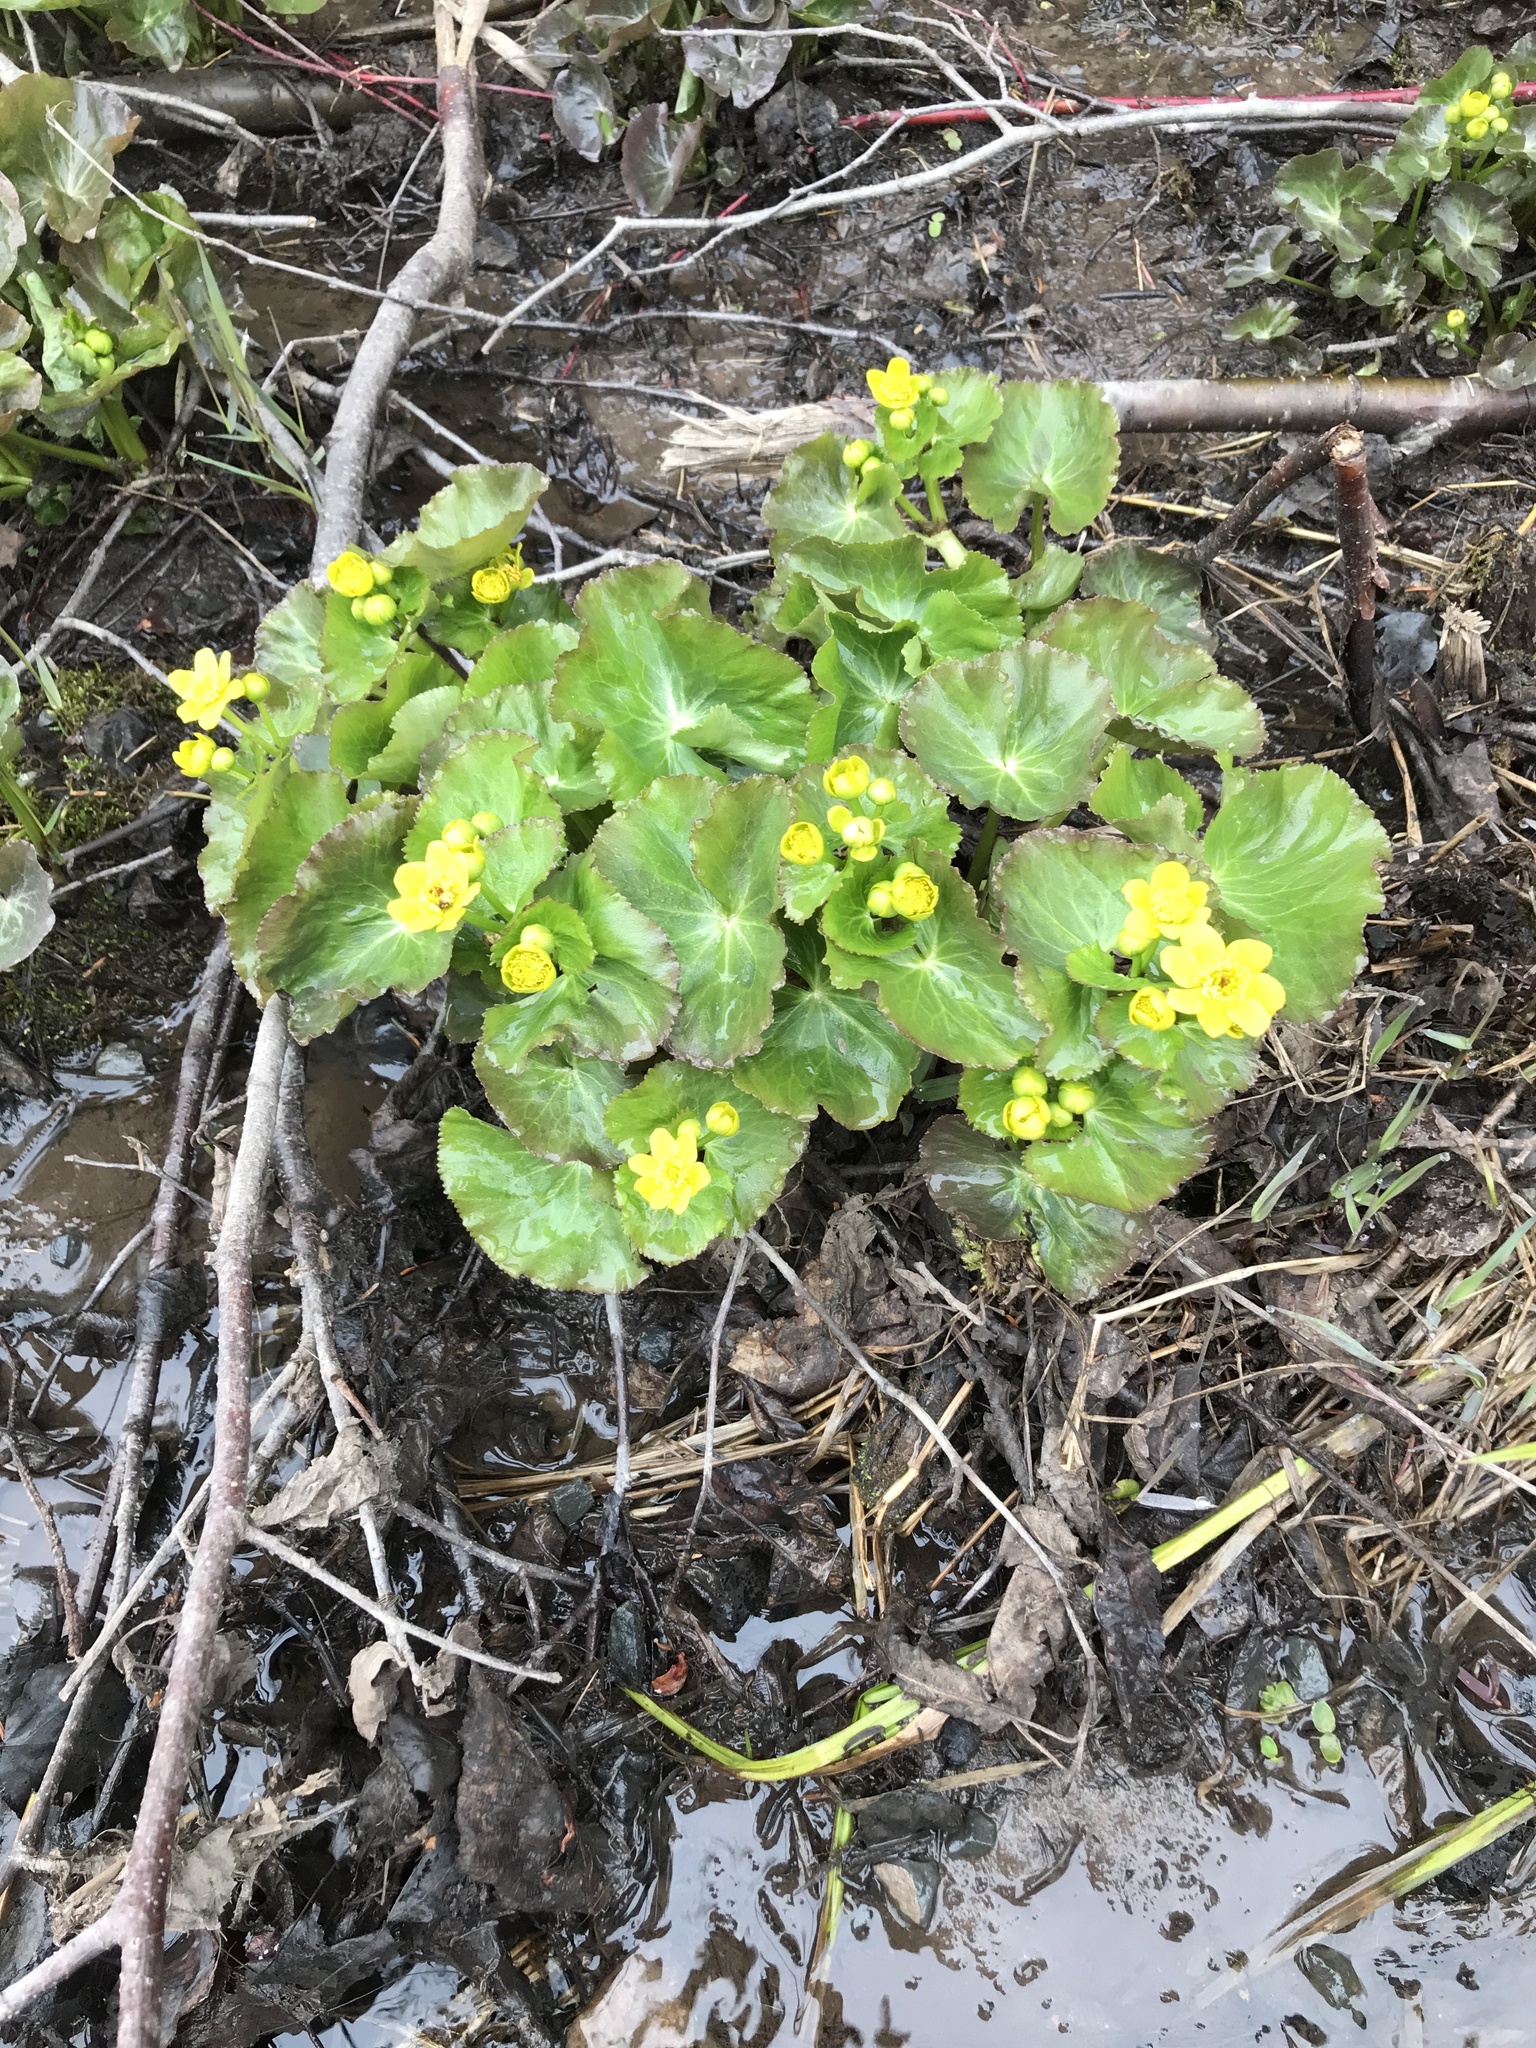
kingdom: Plantae
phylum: Tracheophyta
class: Magnoliopsida
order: Ranunculales
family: Ranunculaceae
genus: Caltha
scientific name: Caltha palustris
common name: Marsh marigold
